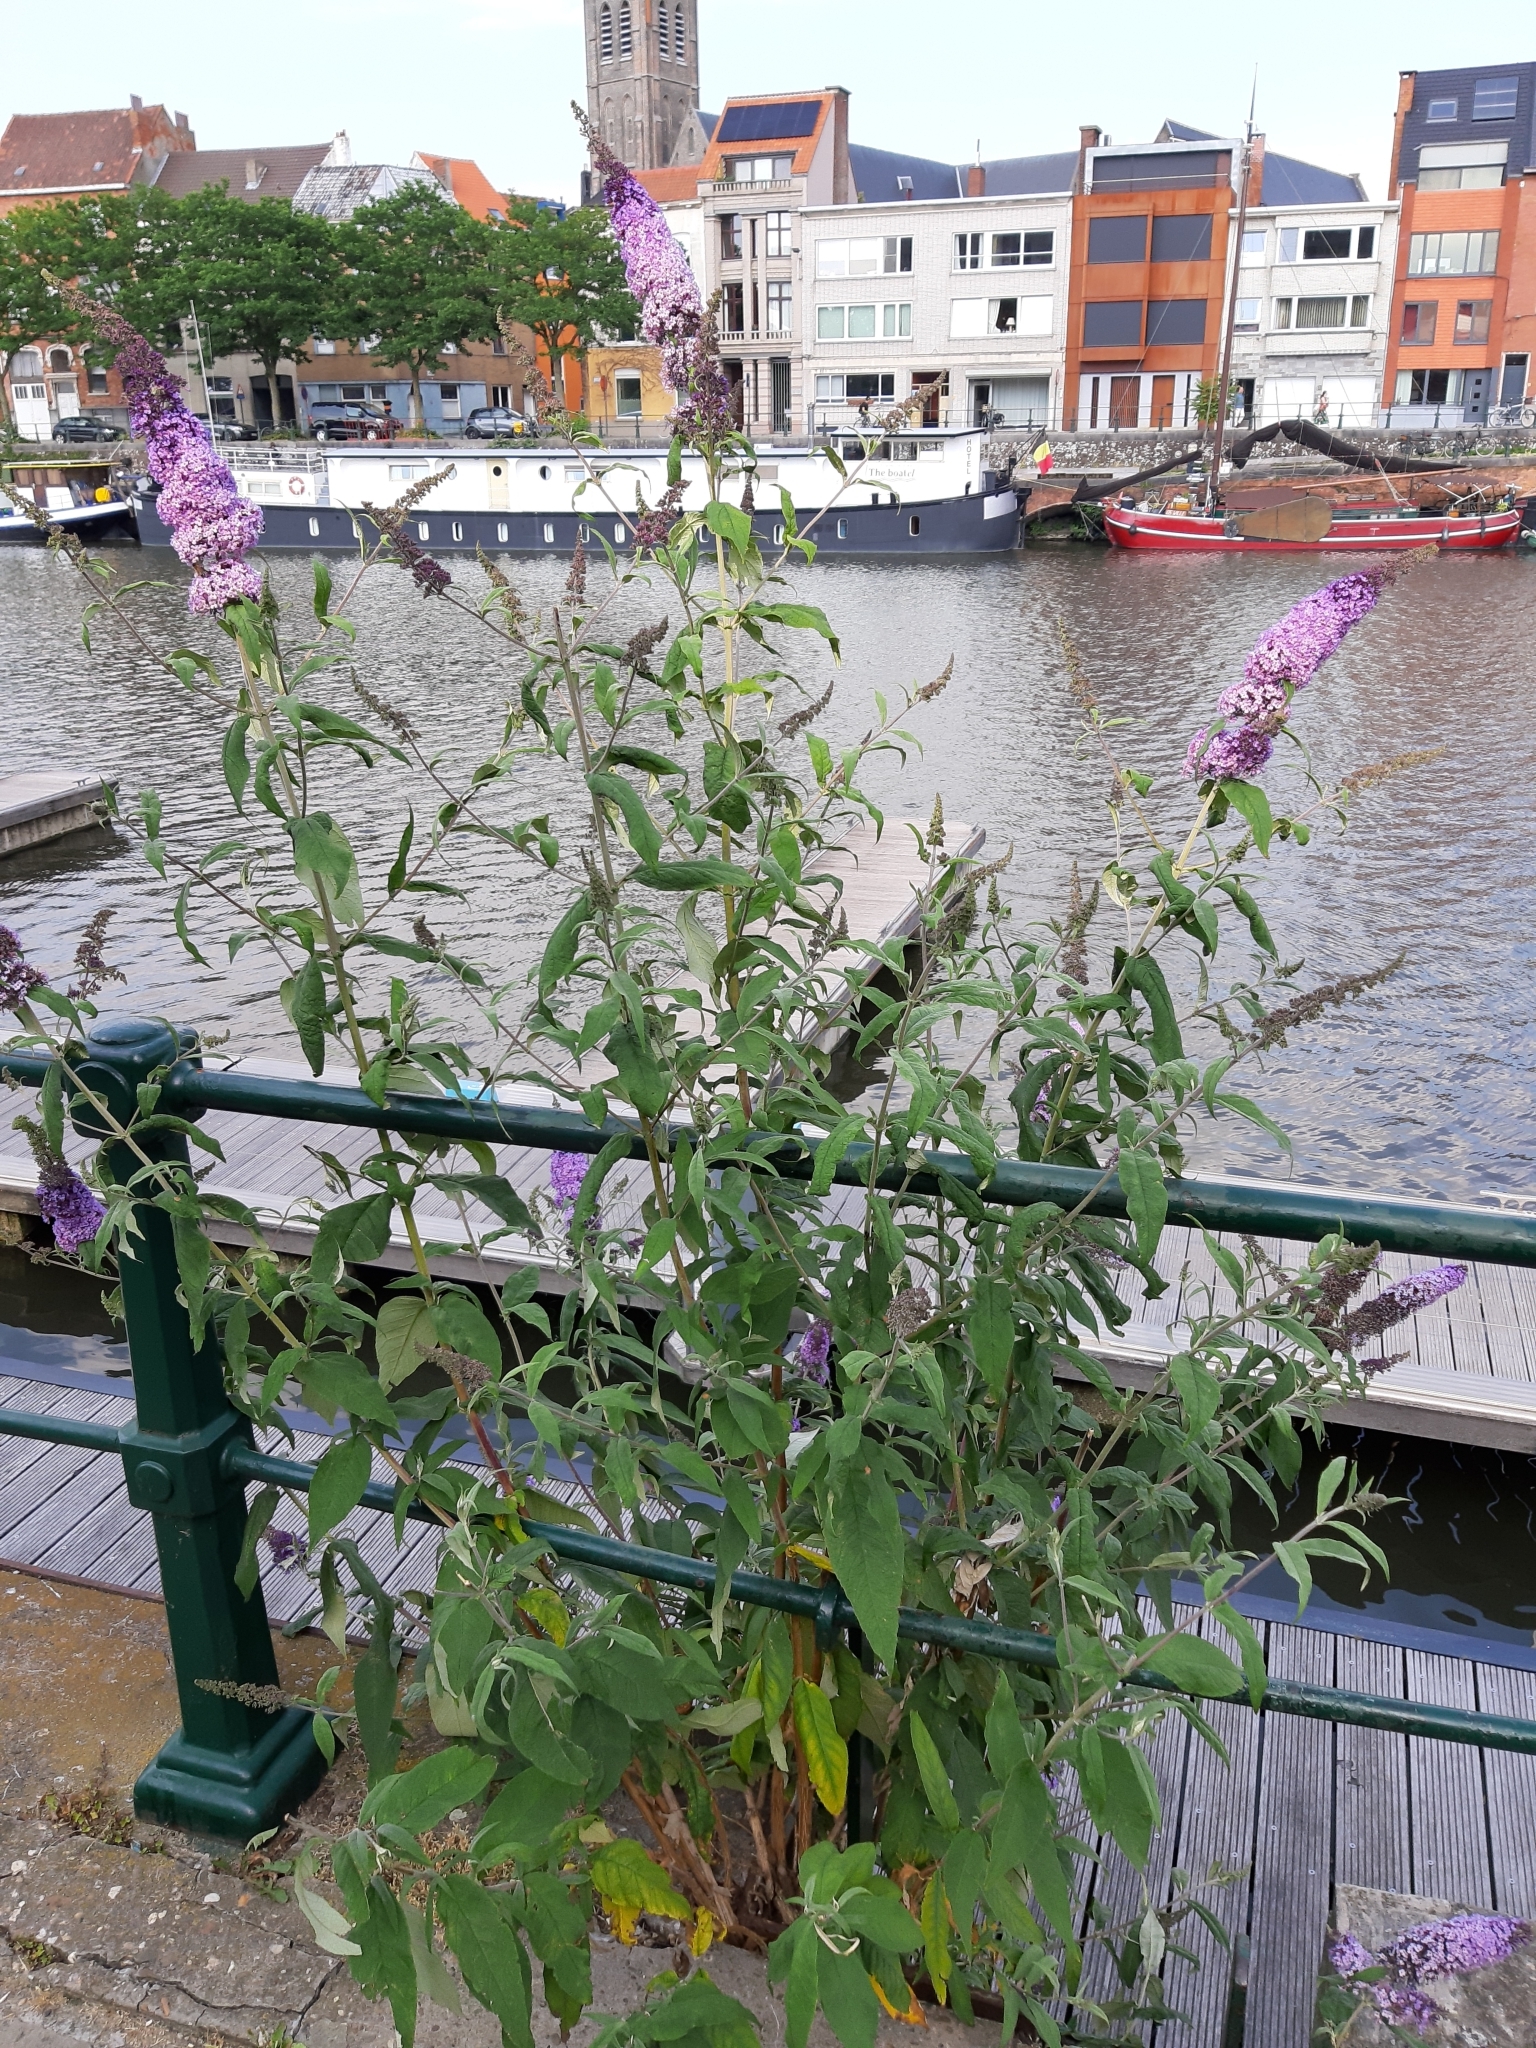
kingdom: Plantae
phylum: Tracheophyta
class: Magnoliopsida
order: Lamiales
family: Scrophulariaceae
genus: Buddleja
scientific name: Buddleja davidii
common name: Butterfly-bush
